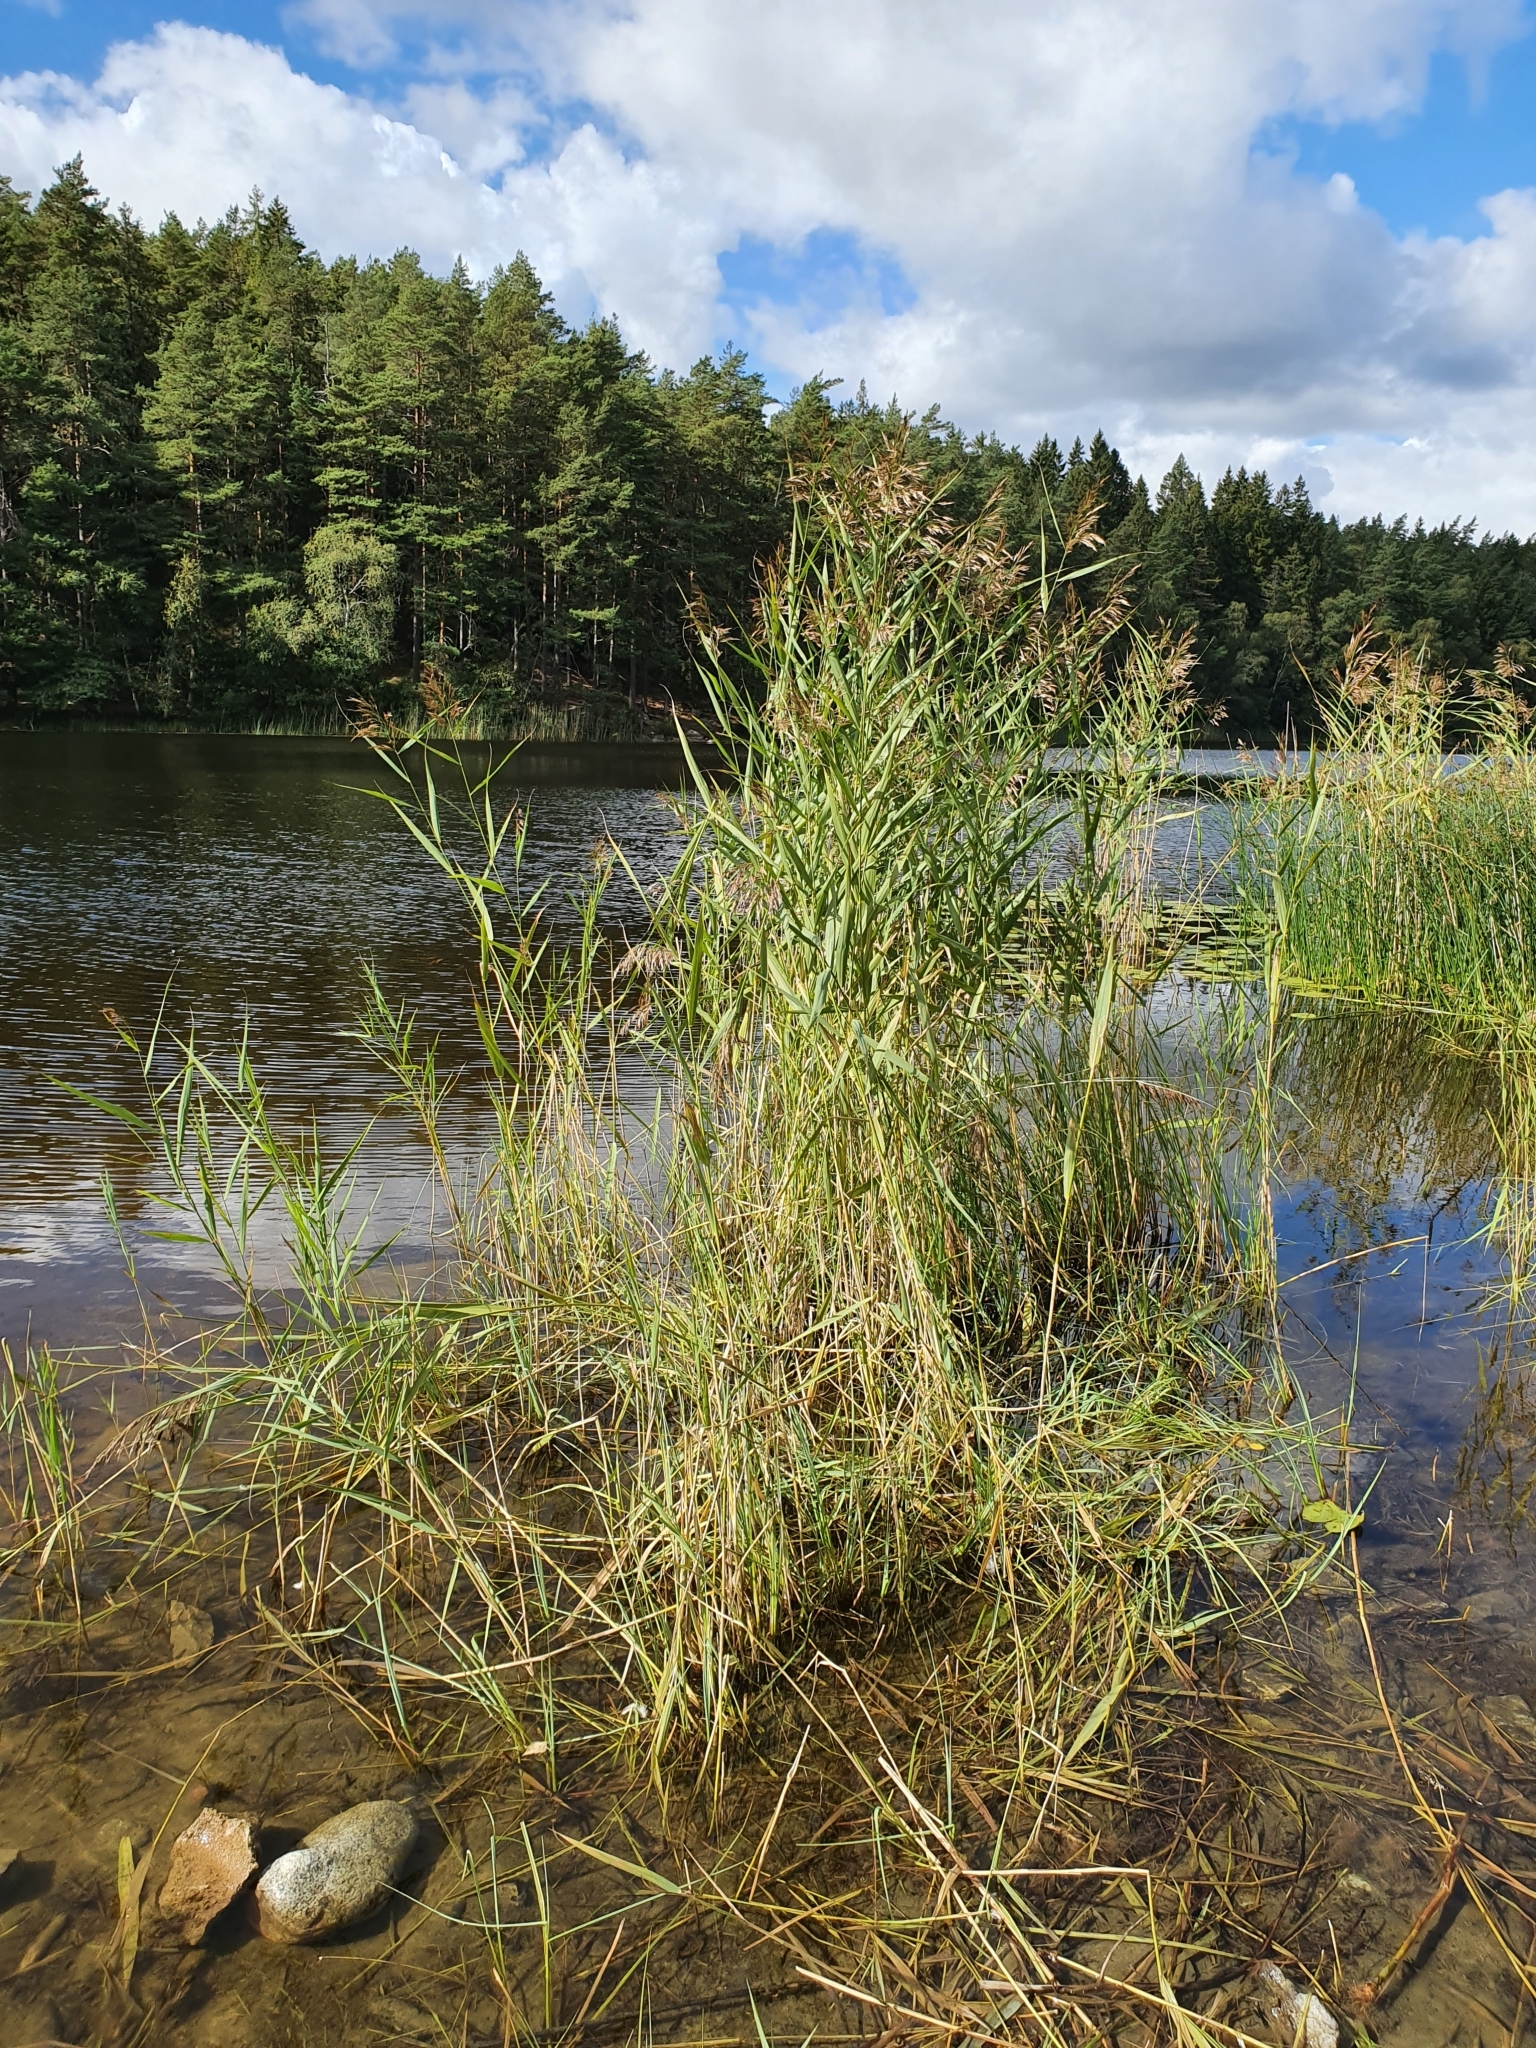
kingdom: Plantae
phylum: Tracheophyta
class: Liliopsida
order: Poales
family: Poaceae
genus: Phragmites
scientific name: Phragmites australis
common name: Common reed
